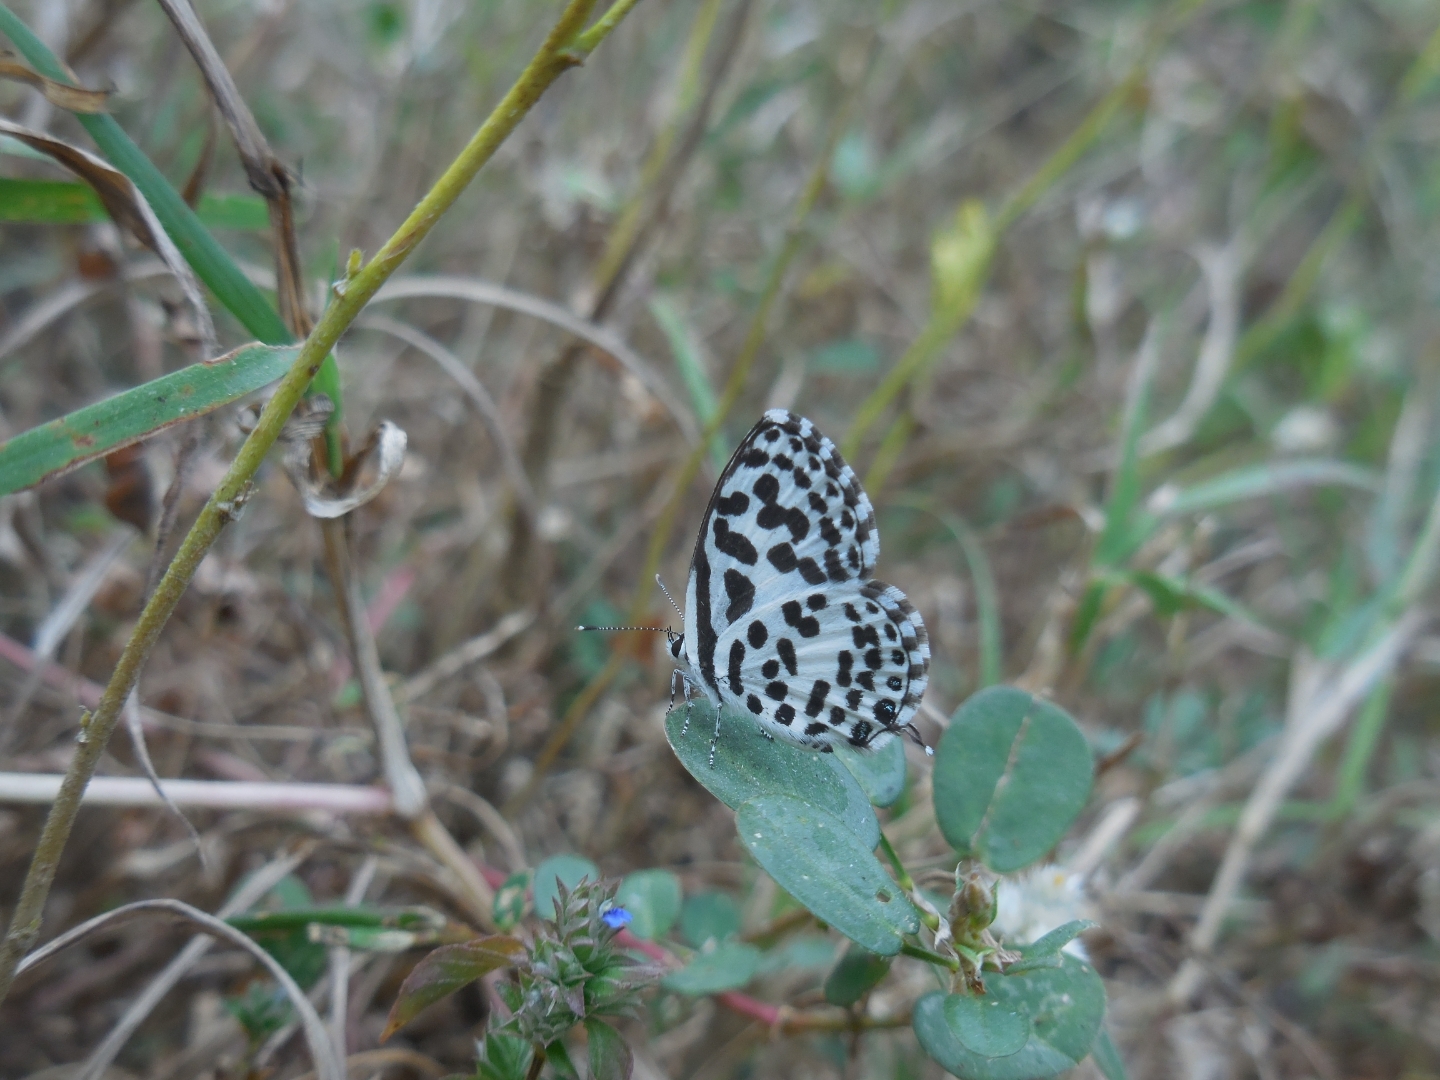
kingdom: Animalia
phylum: Arthropoda
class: Insecta
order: Lepidoptera
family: Lycaenidae
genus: Castalius
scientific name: Castalius rosimon
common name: Common pierrot
